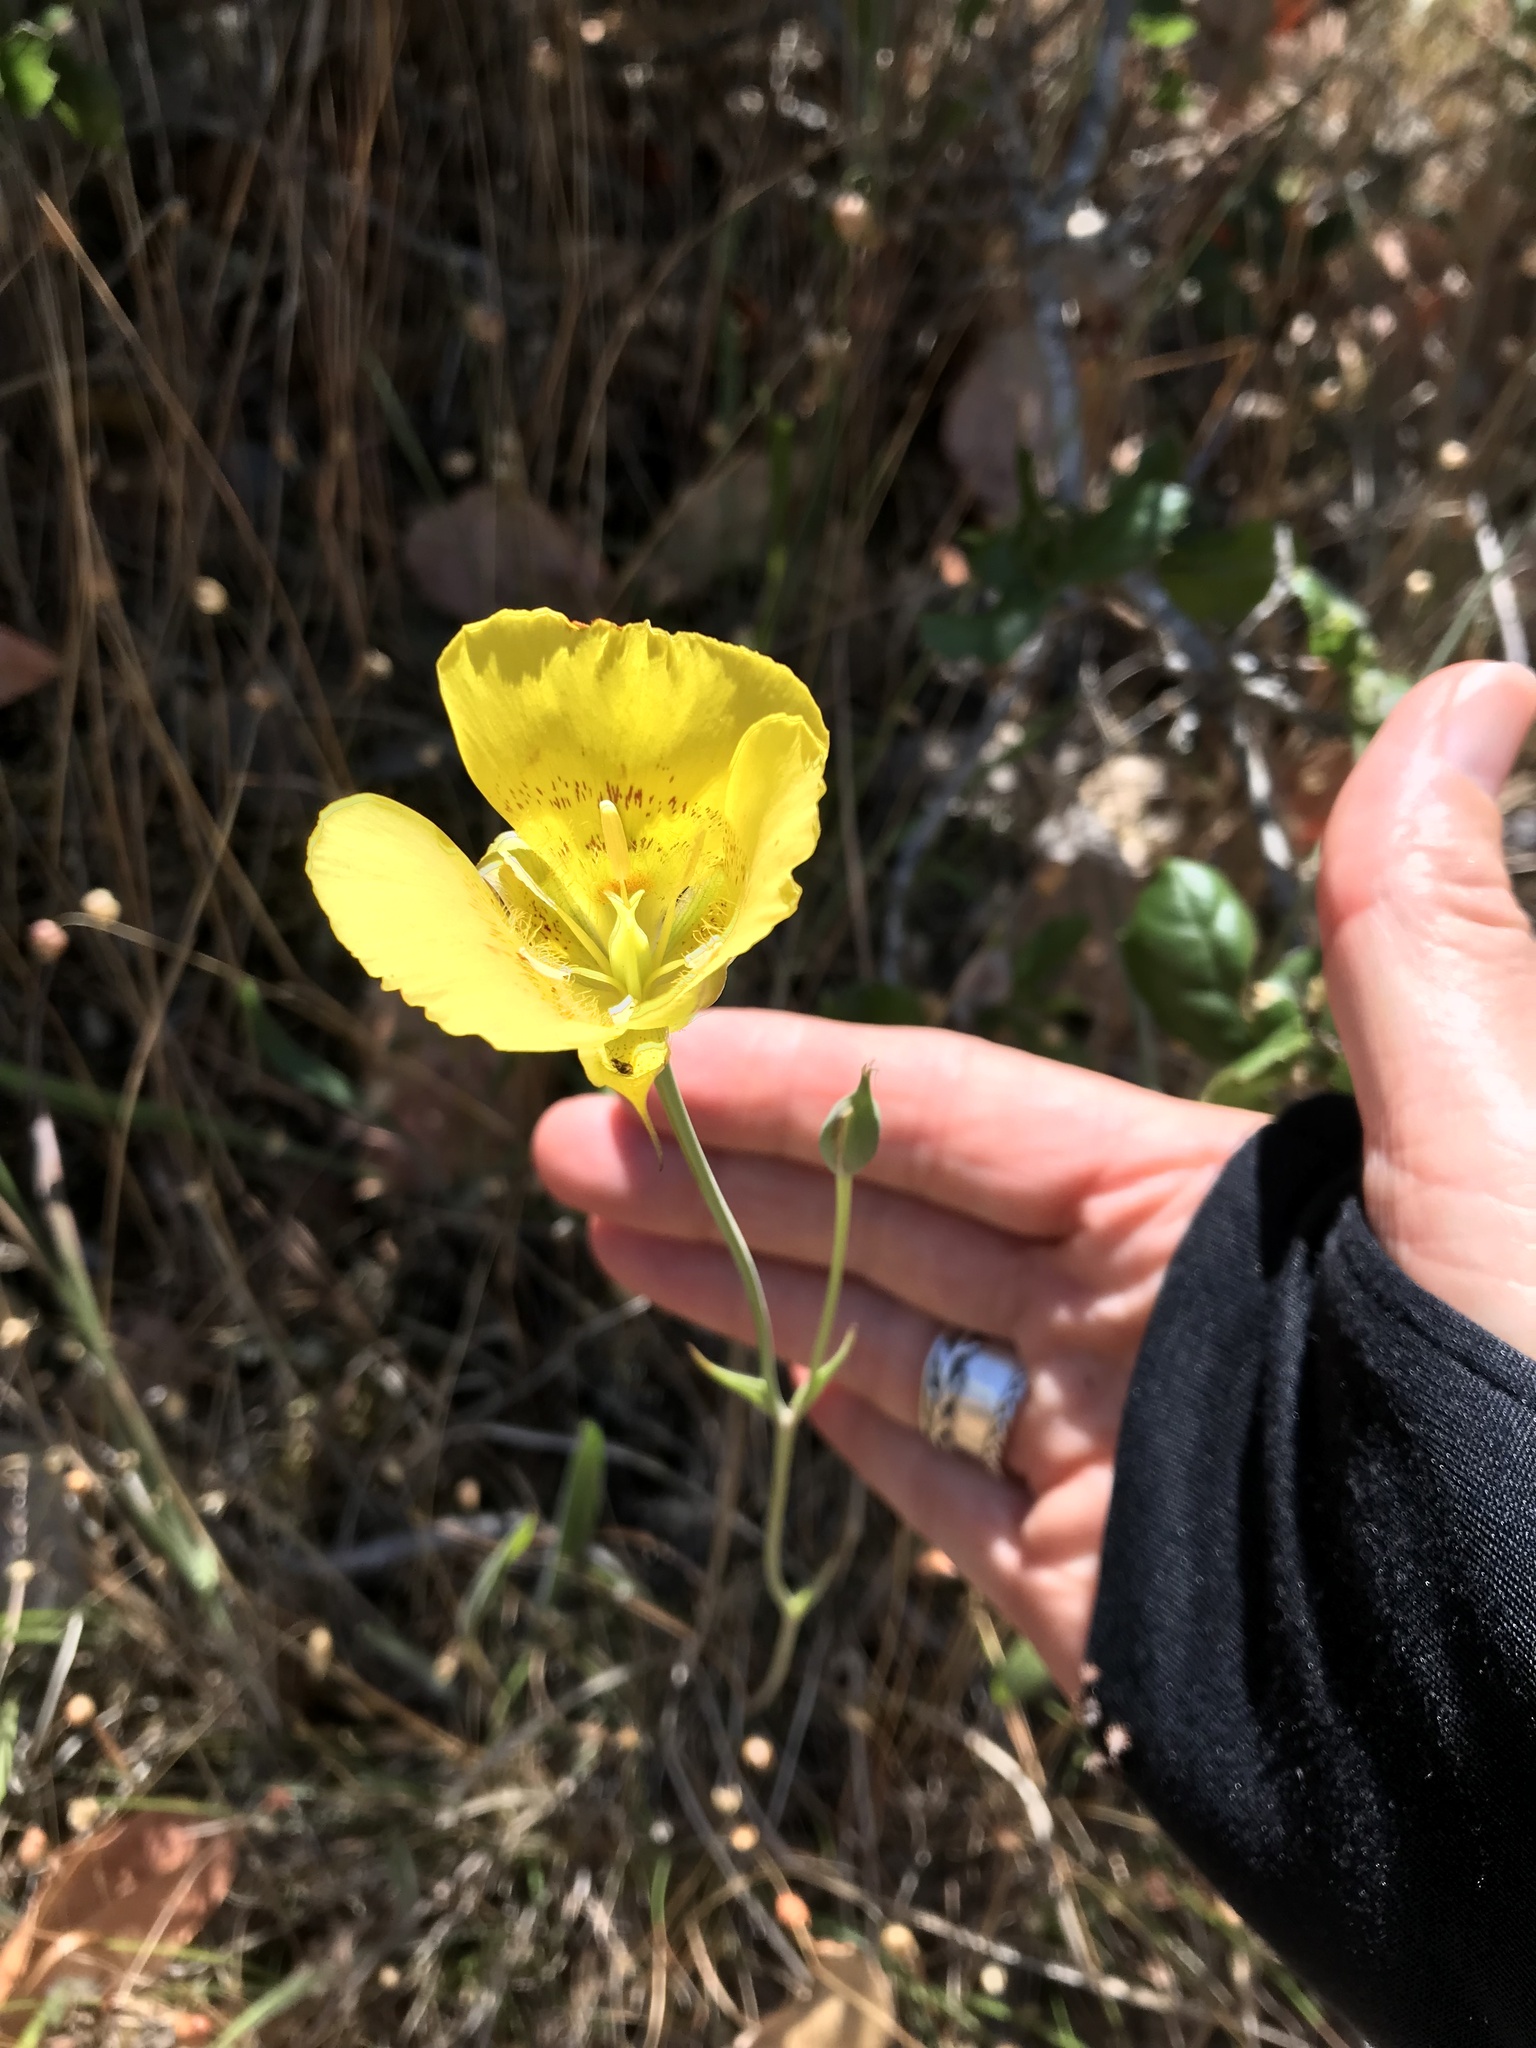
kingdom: Plantae
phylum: Tracheophyta
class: Liliopsida
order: Liliales
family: Liliaceae
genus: Calochortus
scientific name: Calochortus luteus
